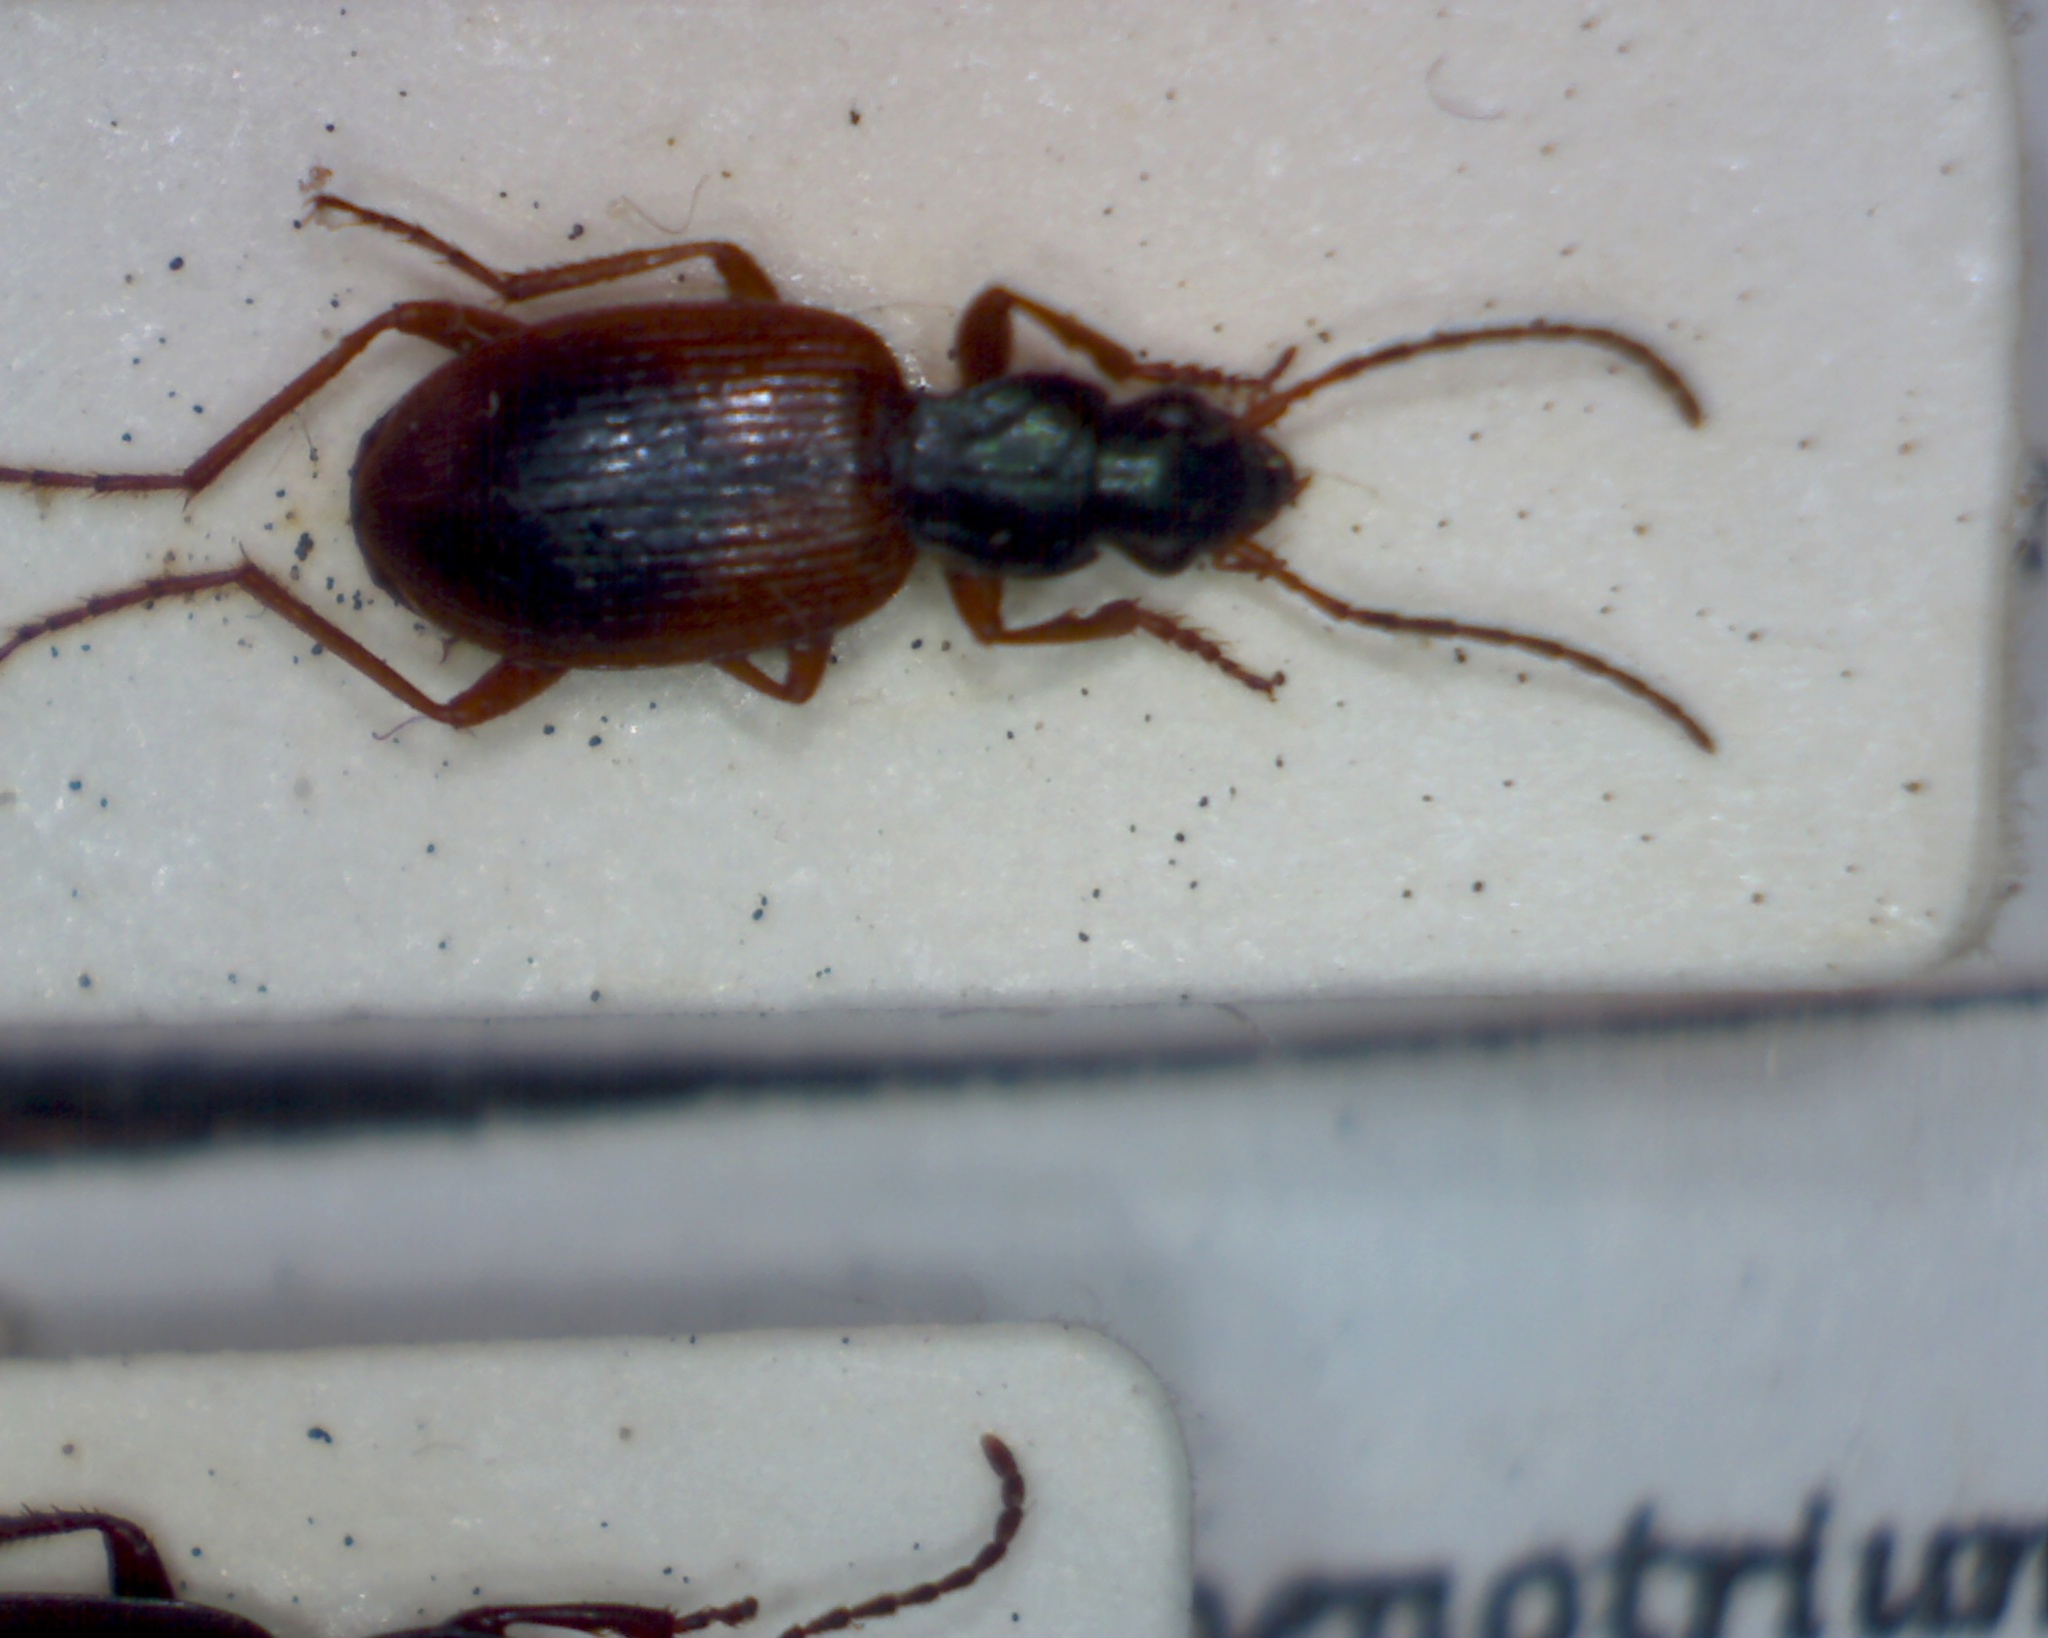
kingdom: Animalia
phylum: Arthropoda
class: Insecta
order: Coleoptera
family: Carabidae
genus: Anchomenus
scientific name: Anchomenus dorsalis
